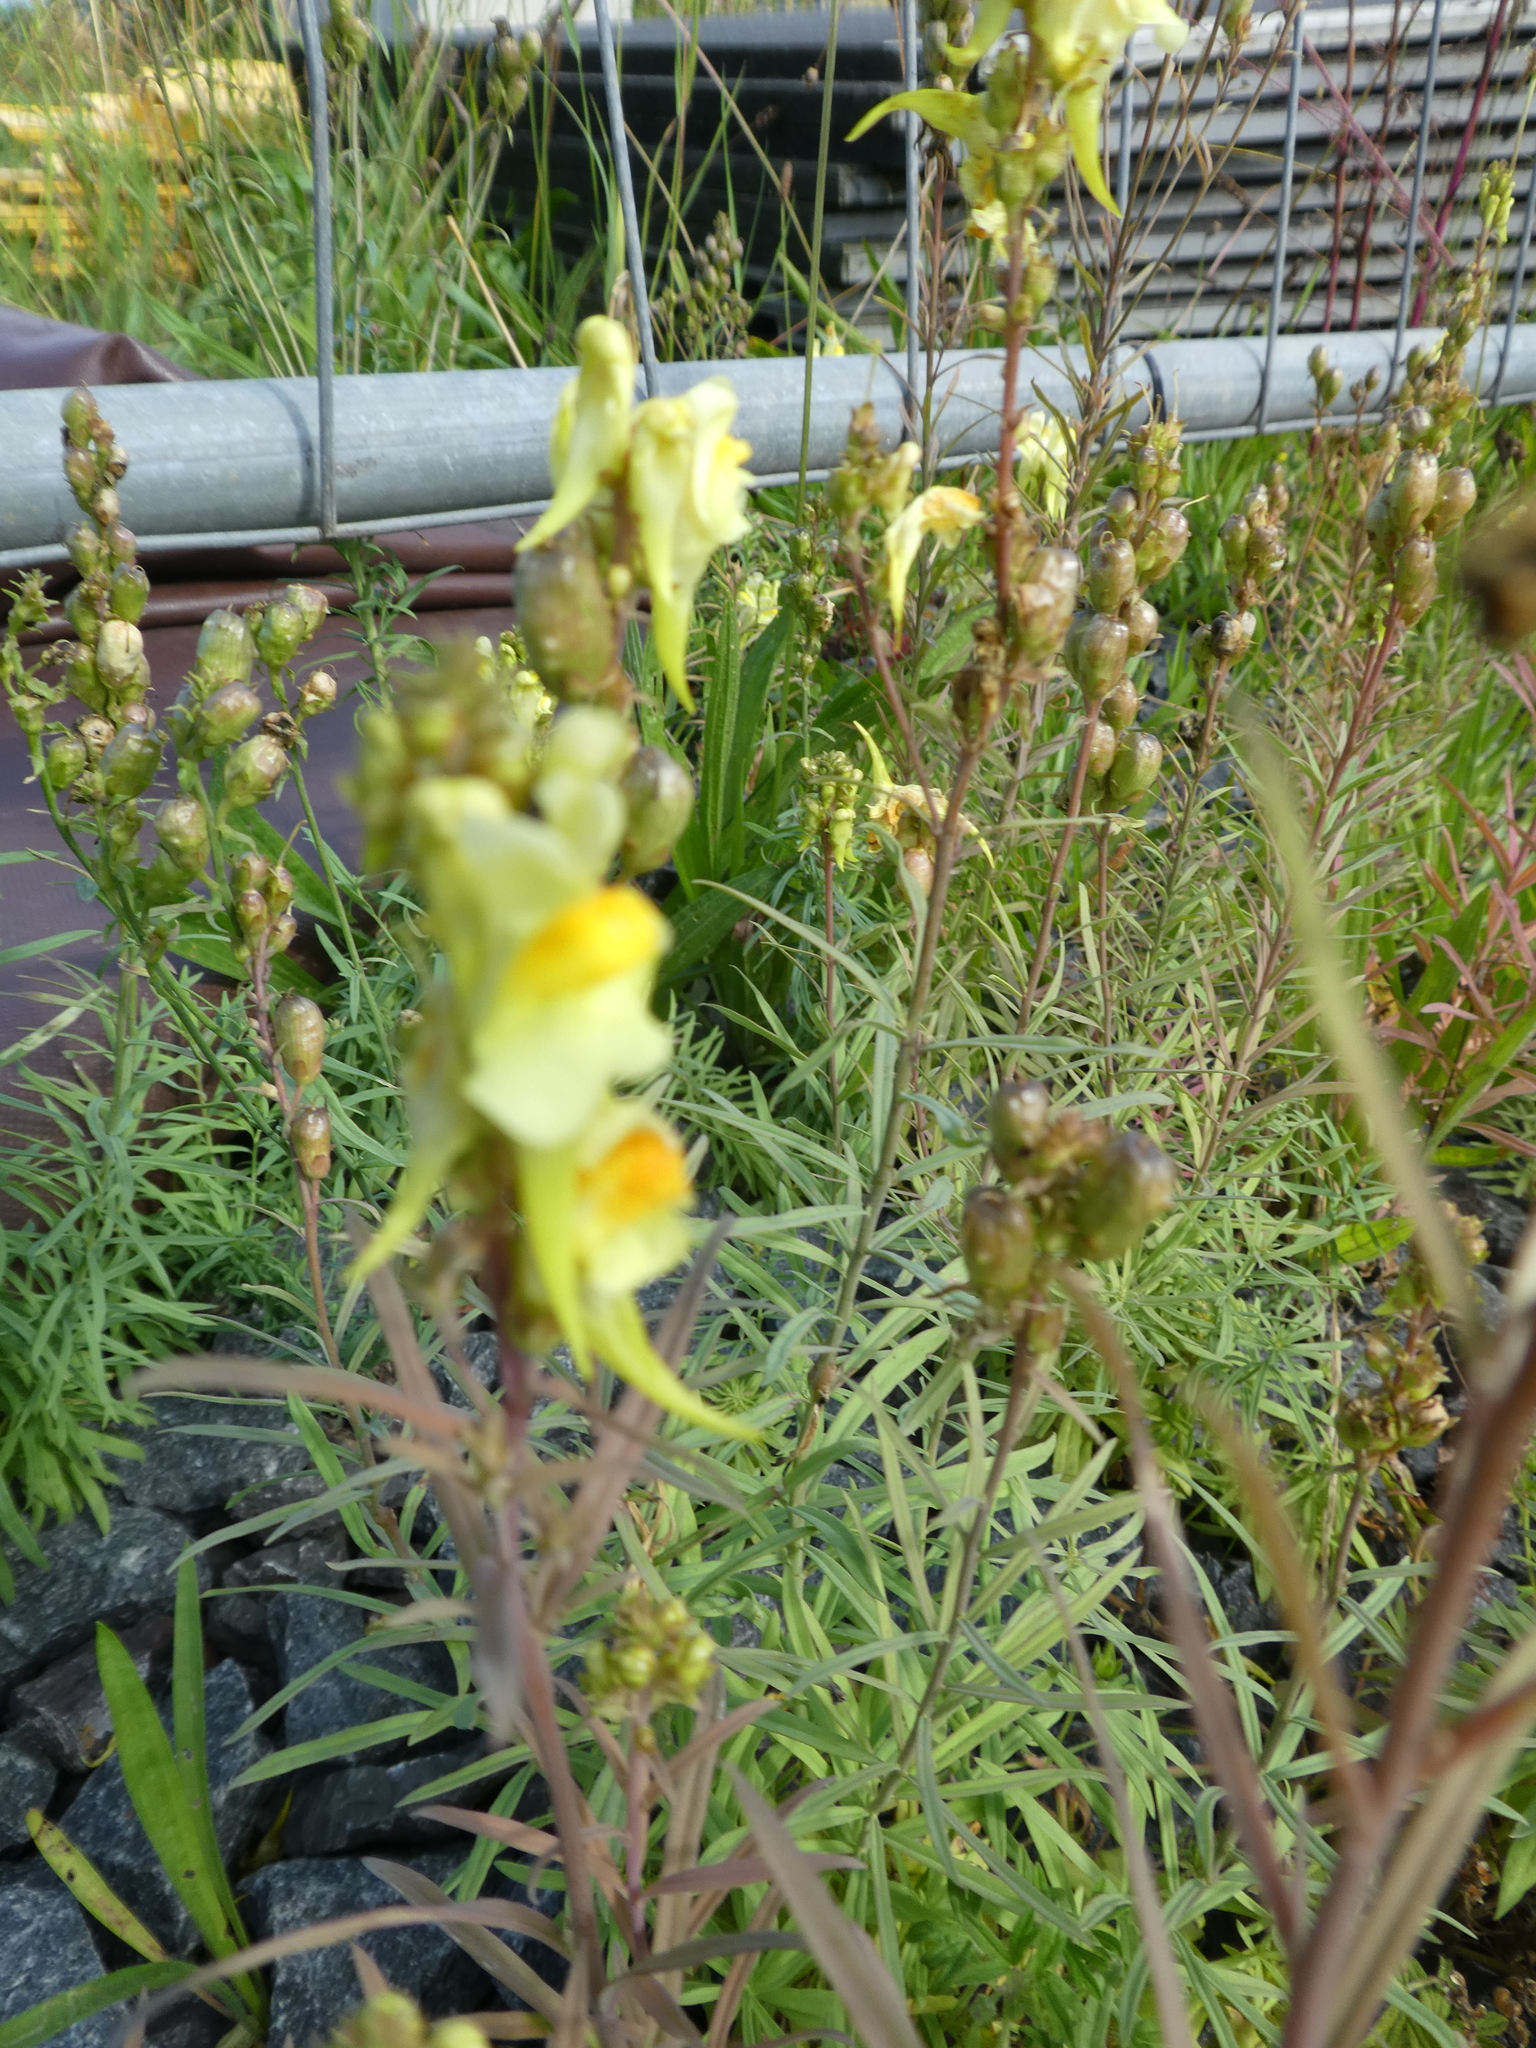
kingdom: Plantae
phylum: Tracheophyta
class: Magnoliopsida
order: Lamiales
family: Plantaginaceae
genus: Linaria
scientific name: Linaria vulgaris
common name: Butter and eggs
